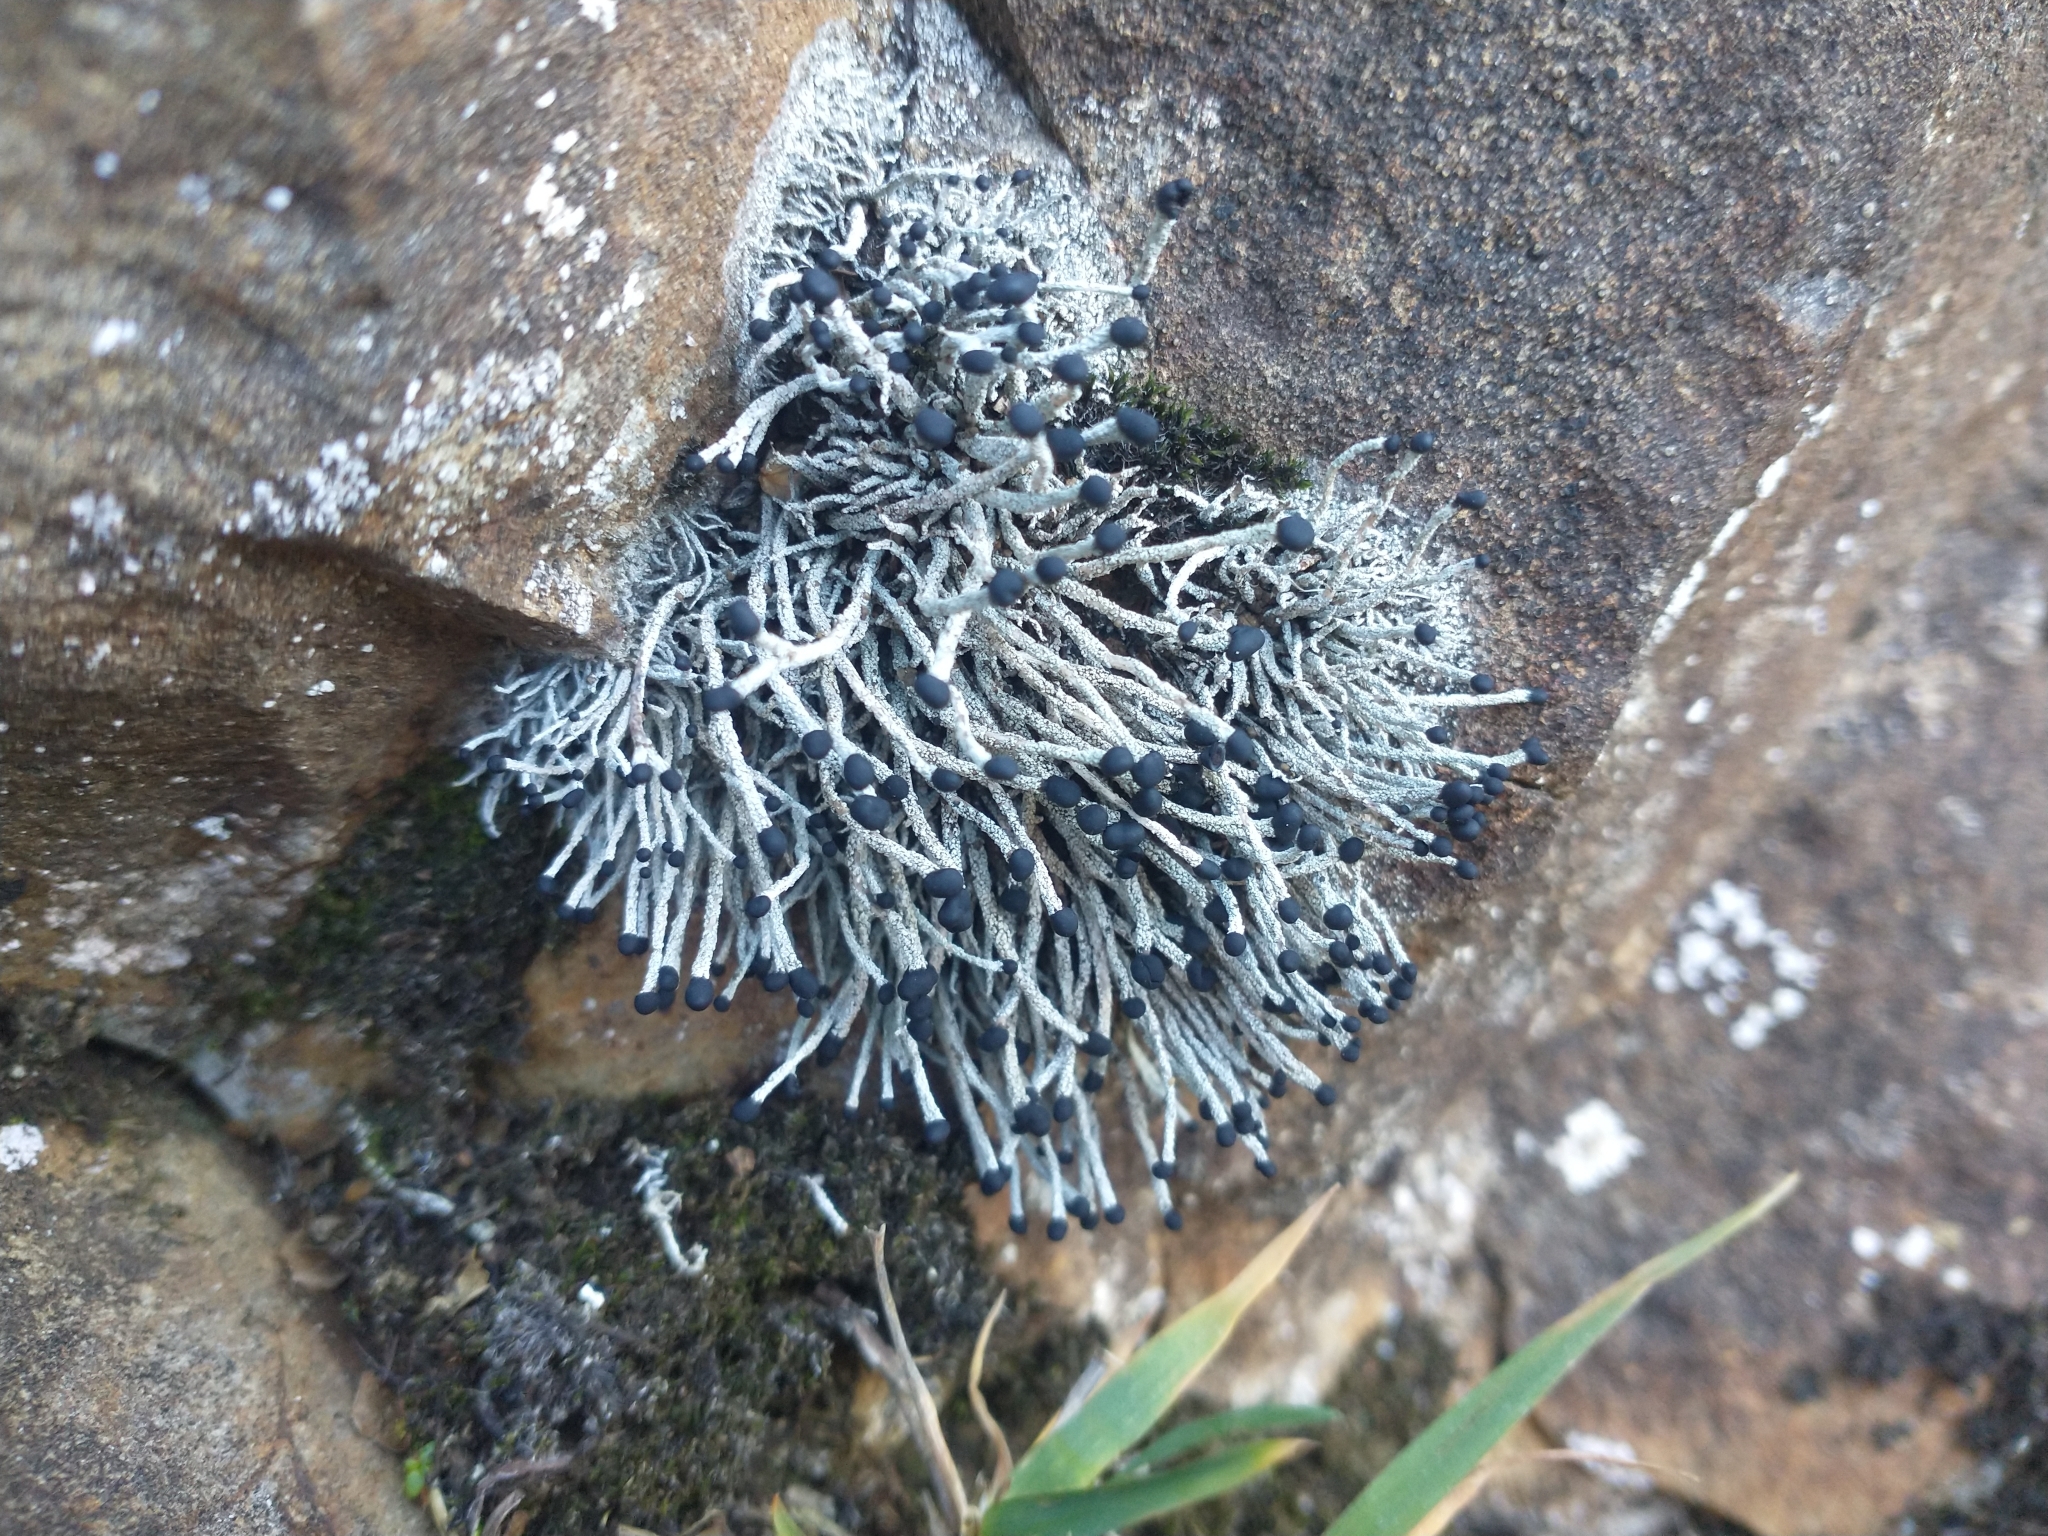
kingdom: Fungi
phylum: Ascomycota
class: Lecanoromycetes
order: Lecanorales
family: Cladoniaceae
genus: Pilophorus
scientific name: Pilophorus acicularis
